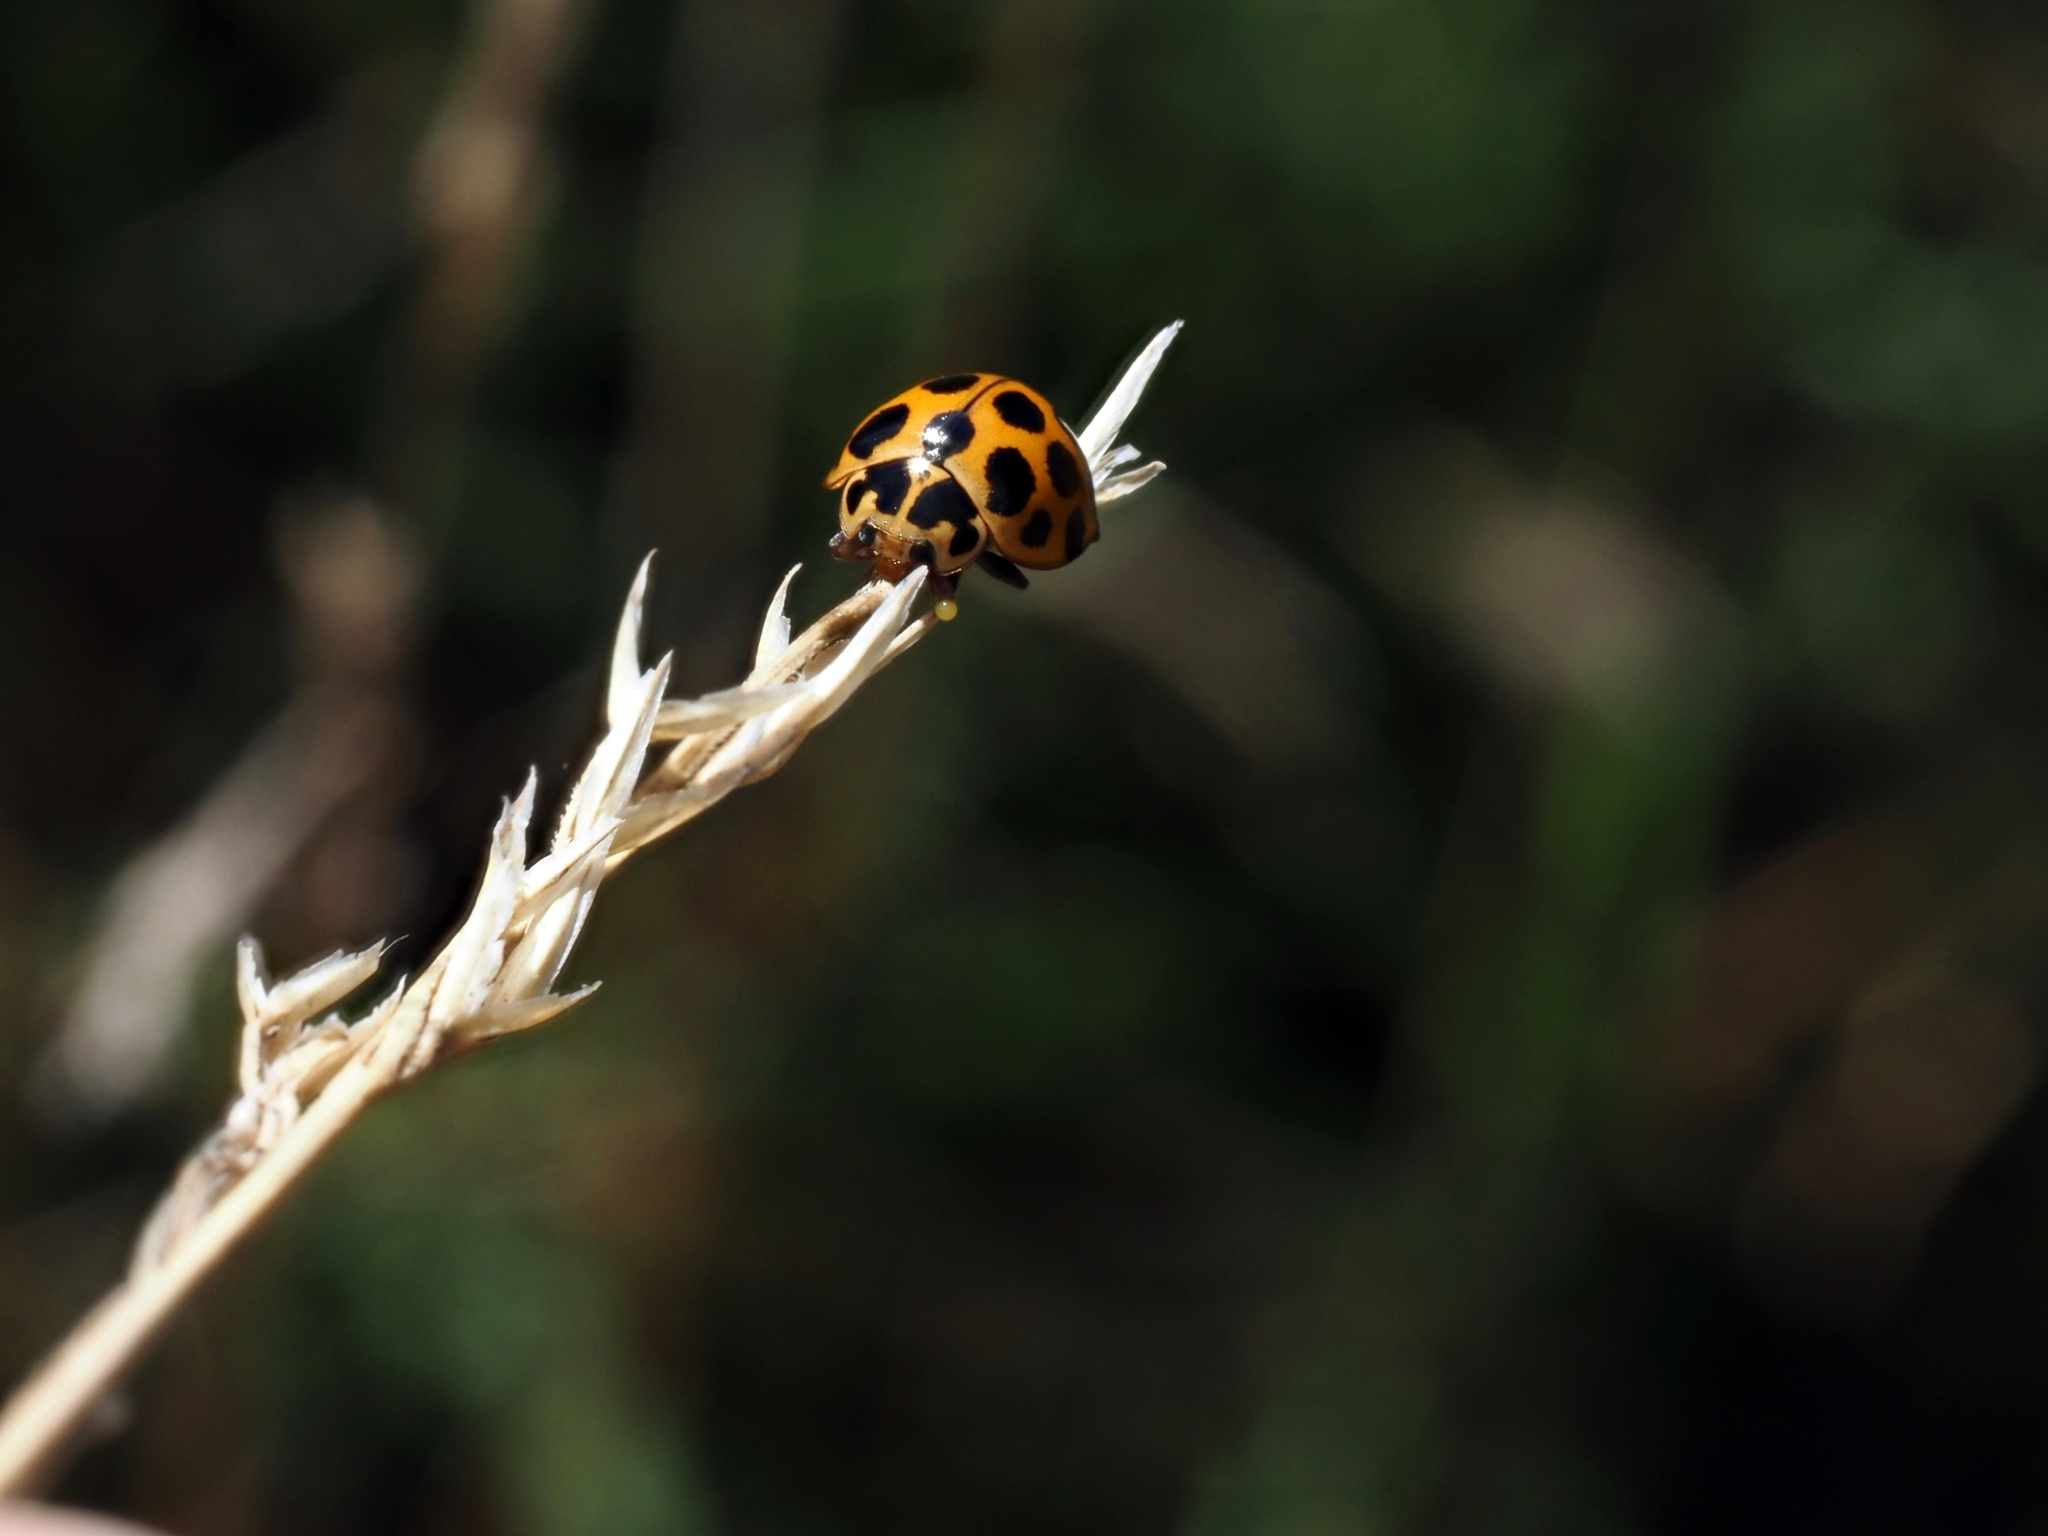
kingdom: Animalia
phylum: Arthropoda
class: Insecta
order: Coleoptera
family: Coccinellidae
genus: Harmonia
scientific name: Harmonia conformis
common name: Common spotted ladybird beetle
